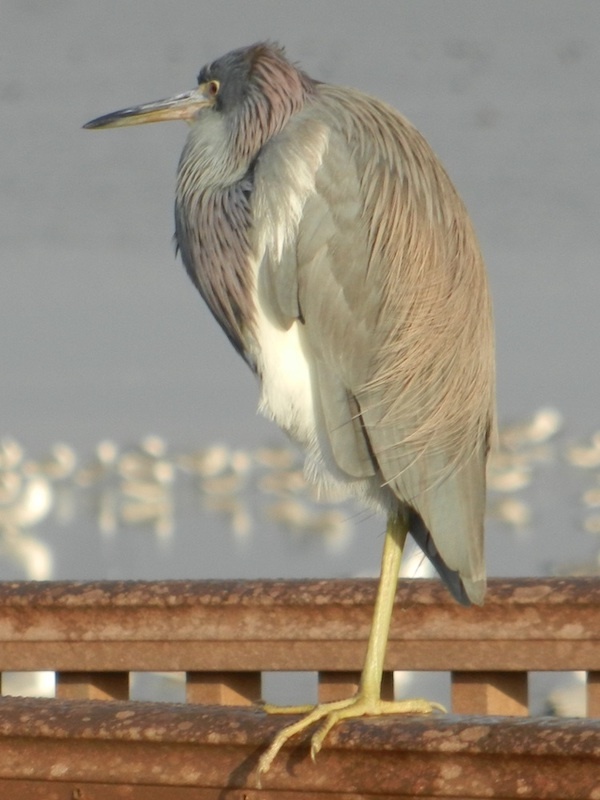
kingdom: Animalia
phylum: Chordata
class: Aves
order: Pelecaniformes
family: Ardeidae
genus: Egretta
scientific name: Egretta tricolor
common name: Tricolored heron
